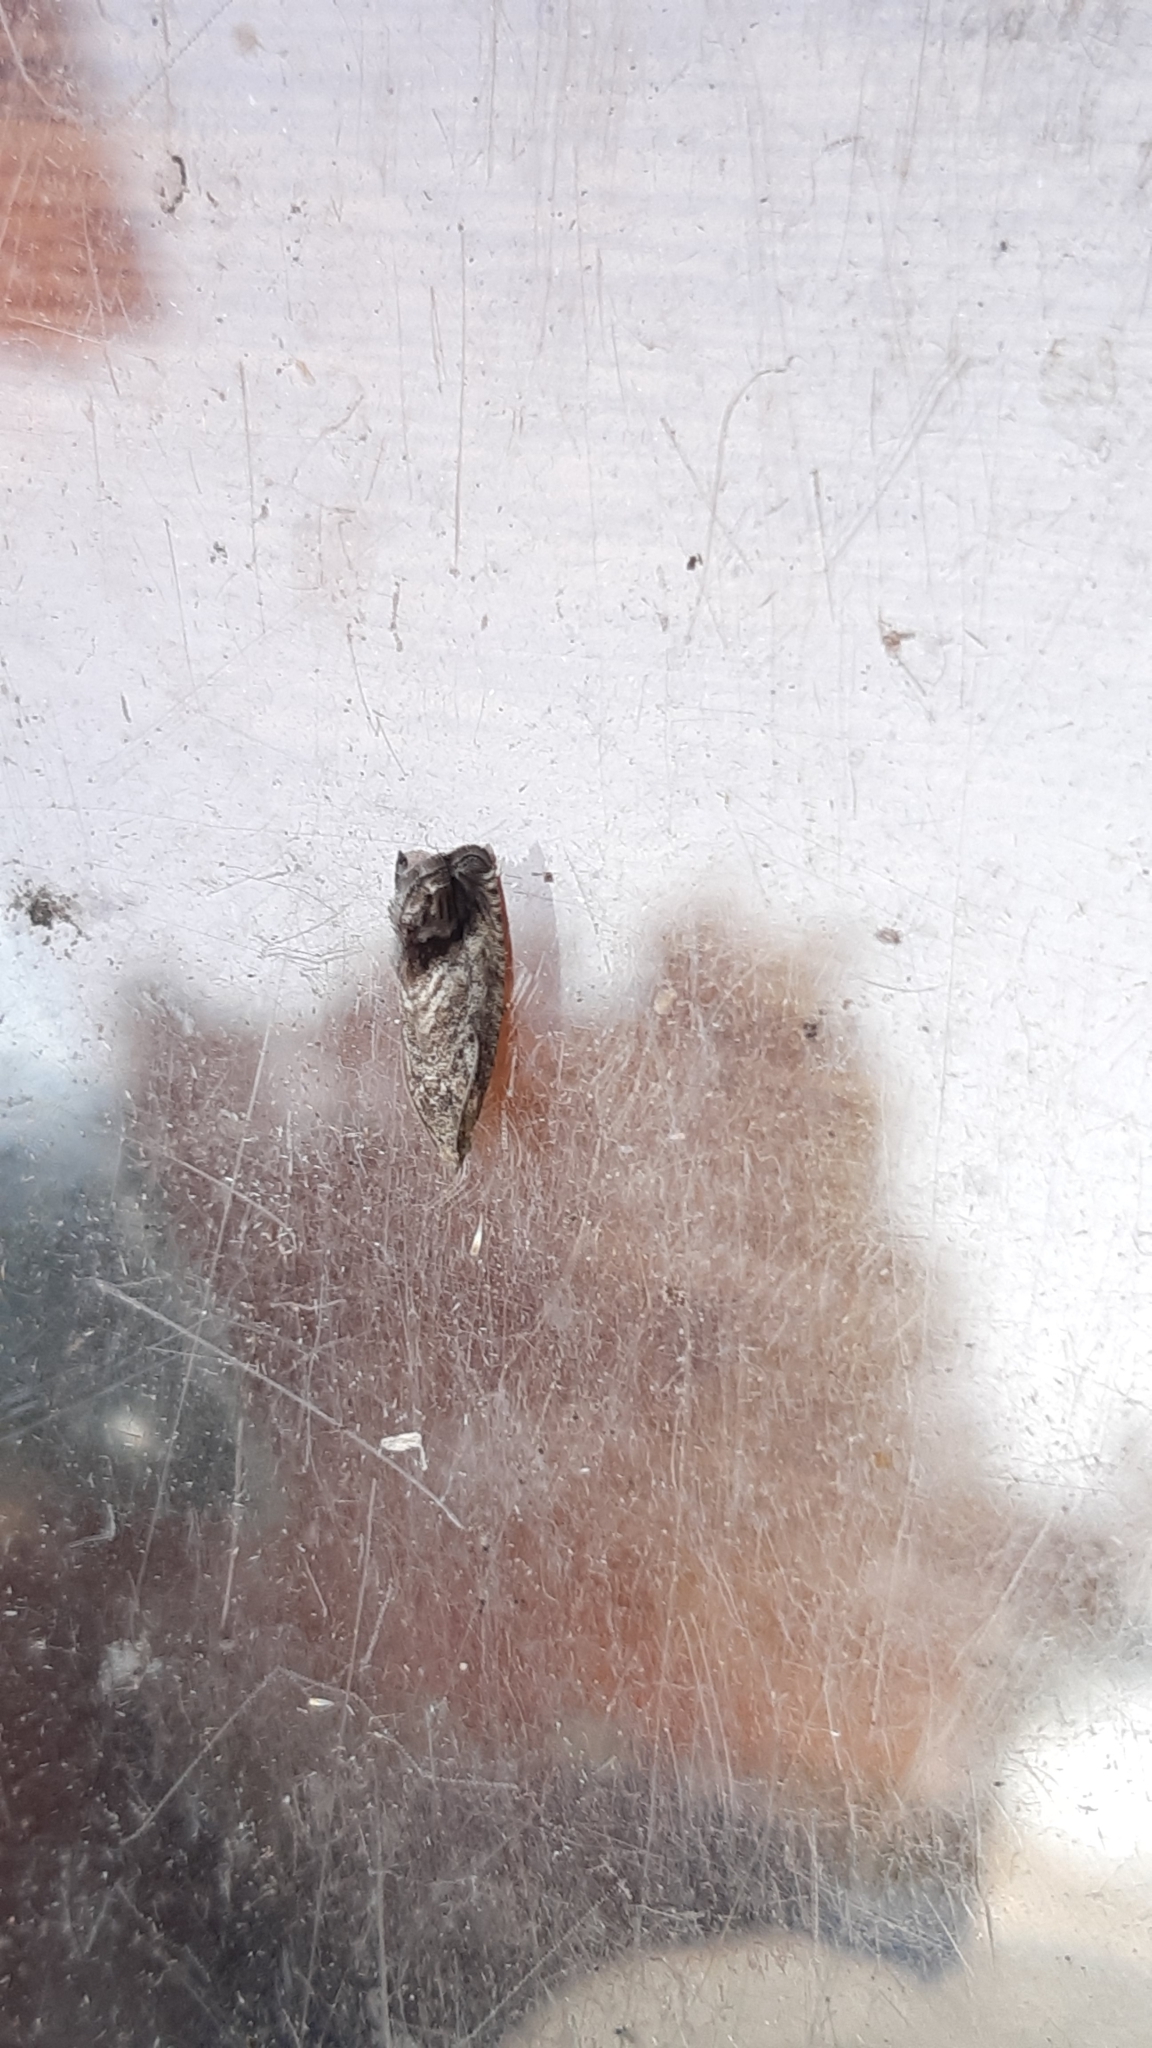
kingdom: Animalia
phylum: Arthropoda
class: Insecta
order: Lepidoptera
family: Tortricidae
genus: Cydia
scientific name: Cydia splendana
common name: De: kastanienwickler, eichenwickler es: oruga de la castaña fr: carpocapse des châtaignes it: cidia o tortrice tardiva delle castagne pt: bichado das castanhas gb: acorn moth, chestnut fruit tortrix
